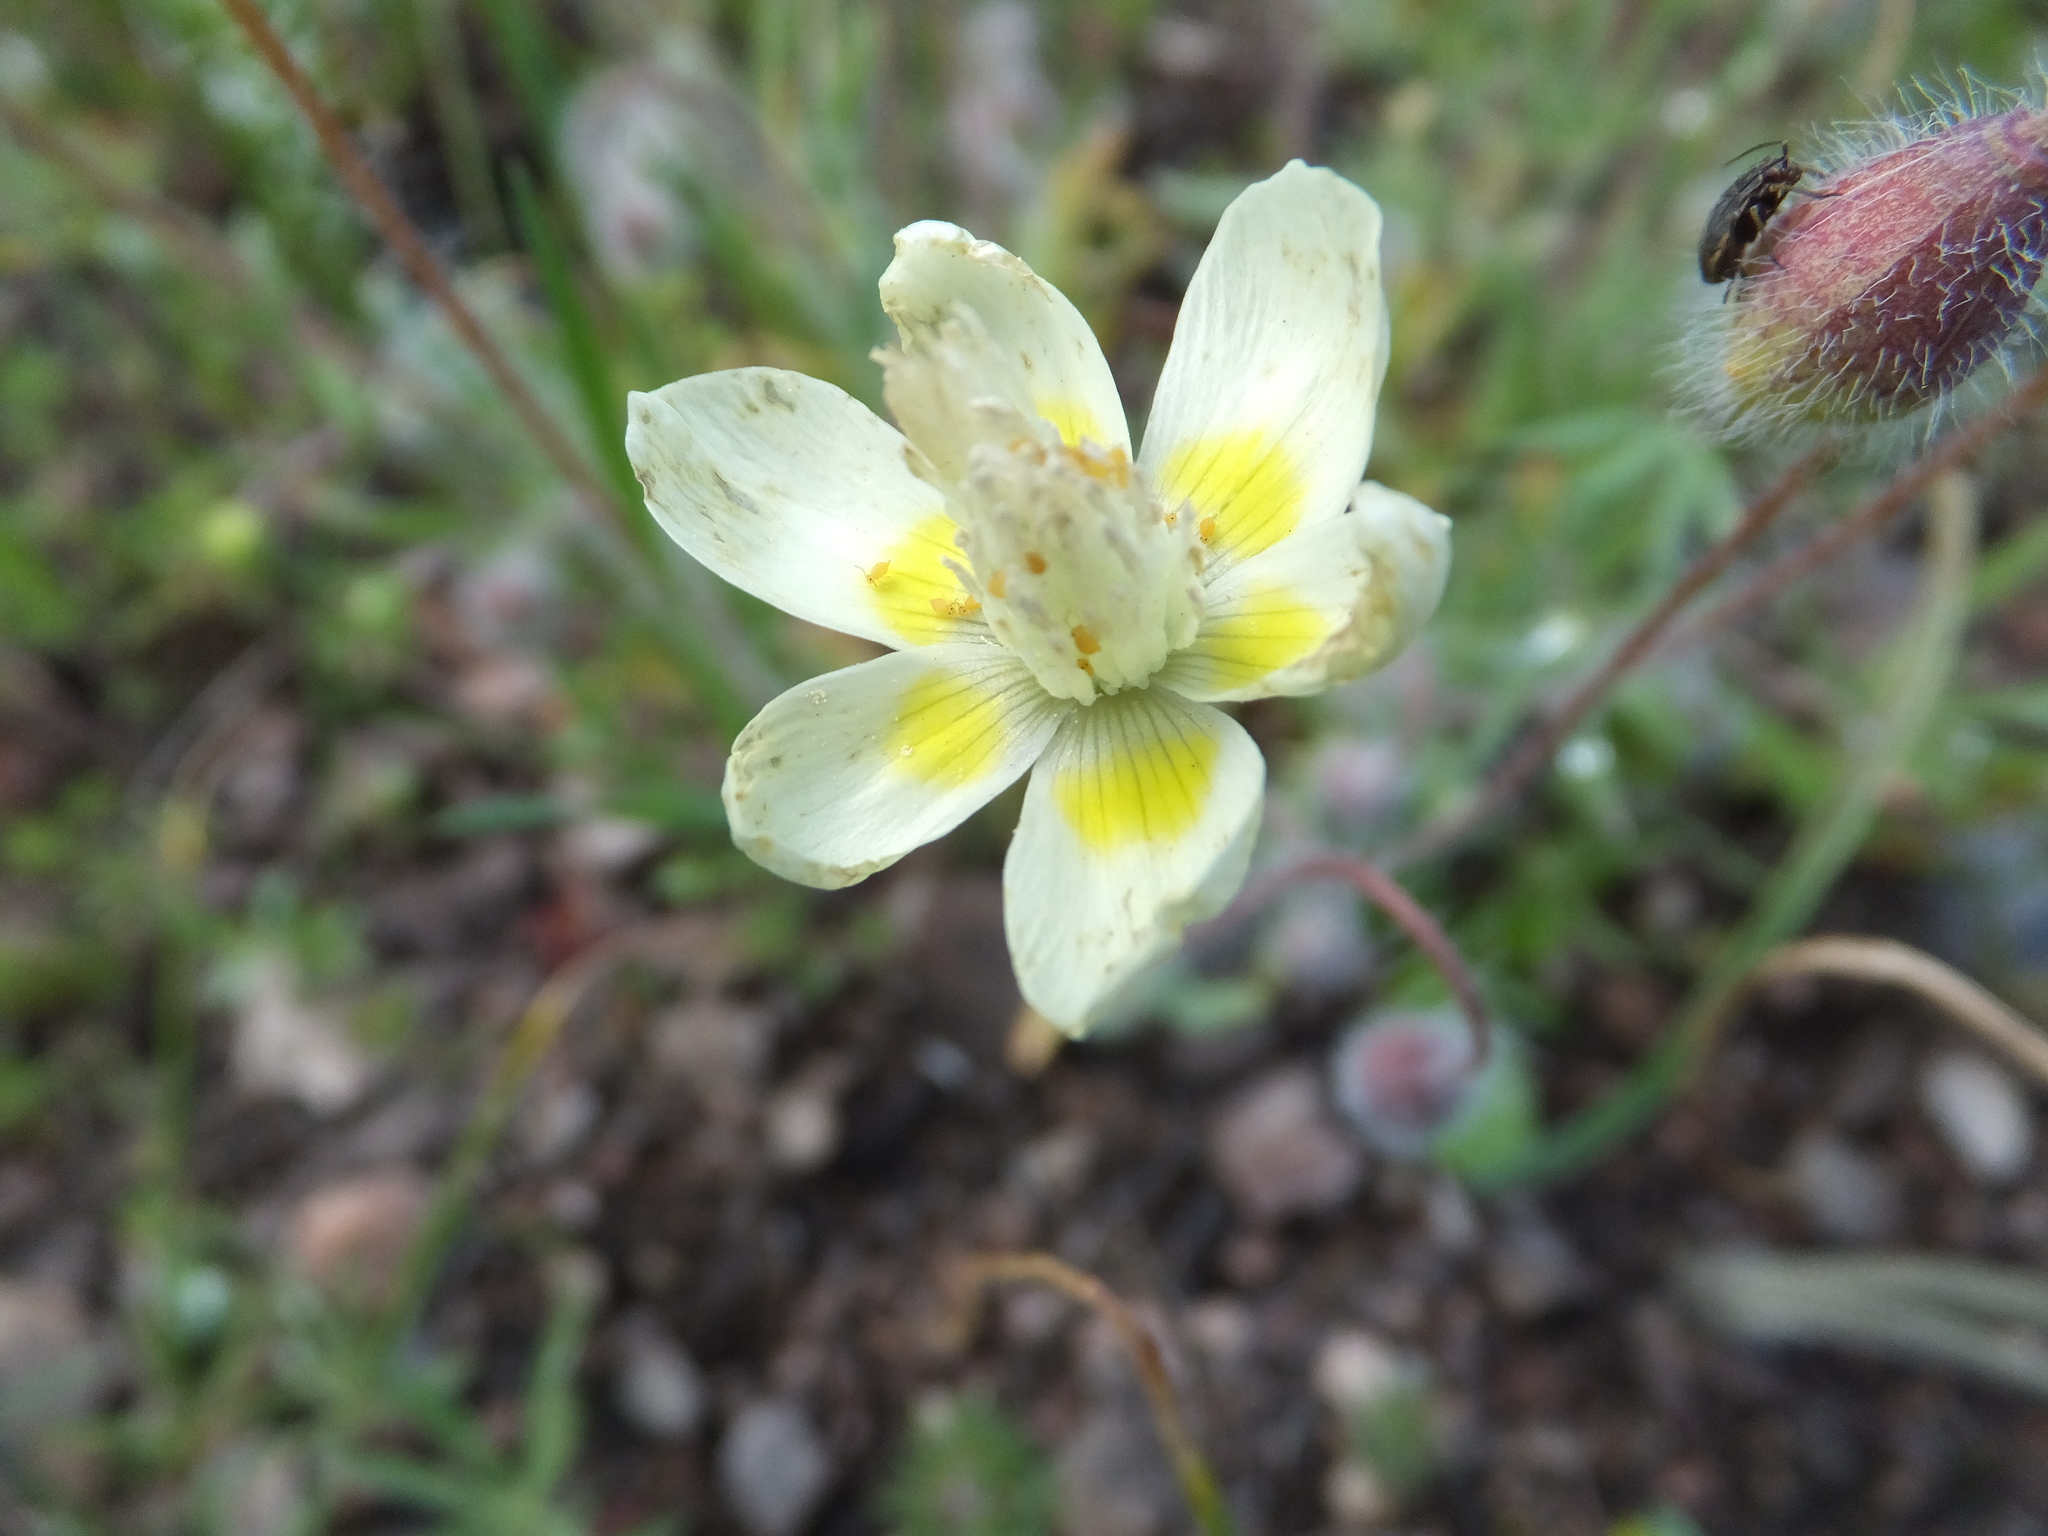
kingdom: Plantae
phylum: Tracheophyta
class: Magnoliopsida
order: Ranunculales
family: Papaveraceae
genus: Platystemon
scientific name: Platystemon californicus
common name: Cream-cups
